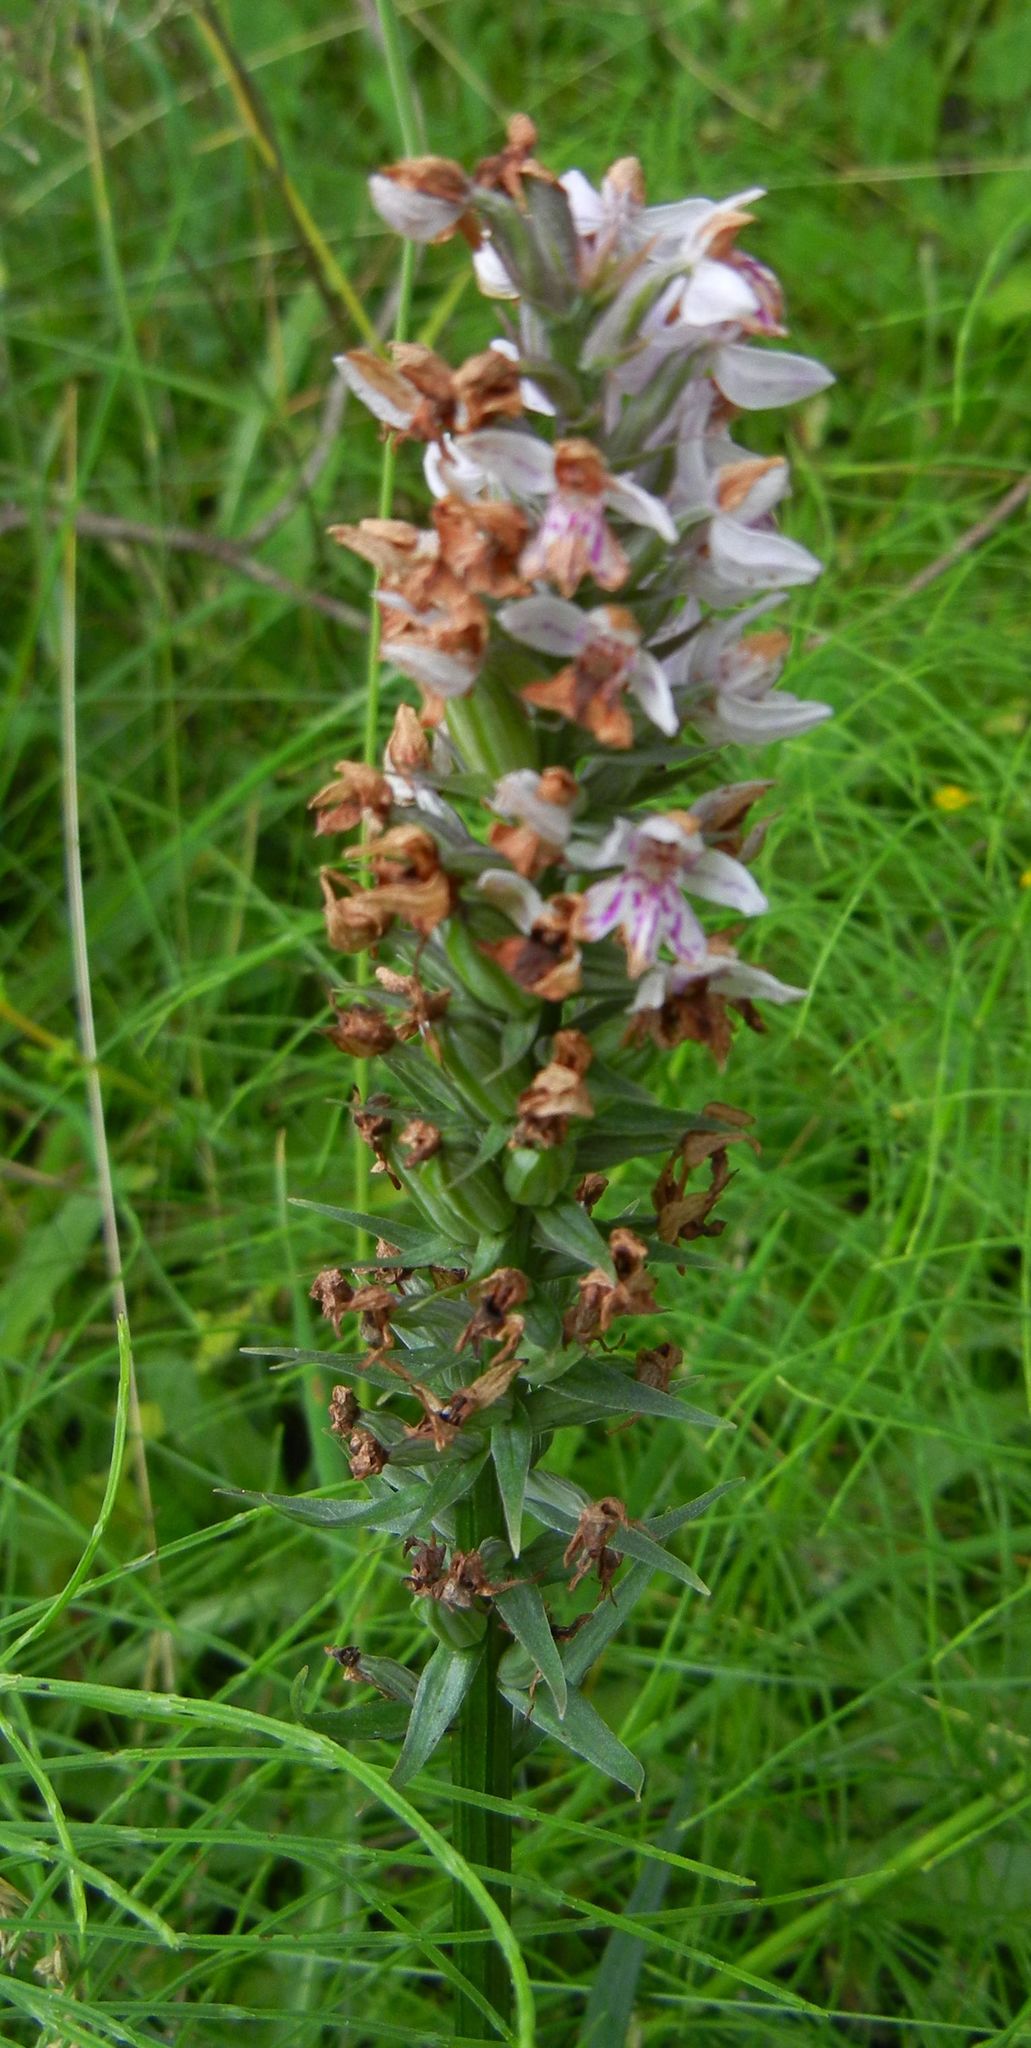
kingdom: Plantae
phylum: Tracheophyta
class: Liliopsida
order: Asparagales
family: Orchidaceae
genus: Dactylorhiza
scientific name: Dactylorhiza maculata
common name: Heath spotted-orchid
